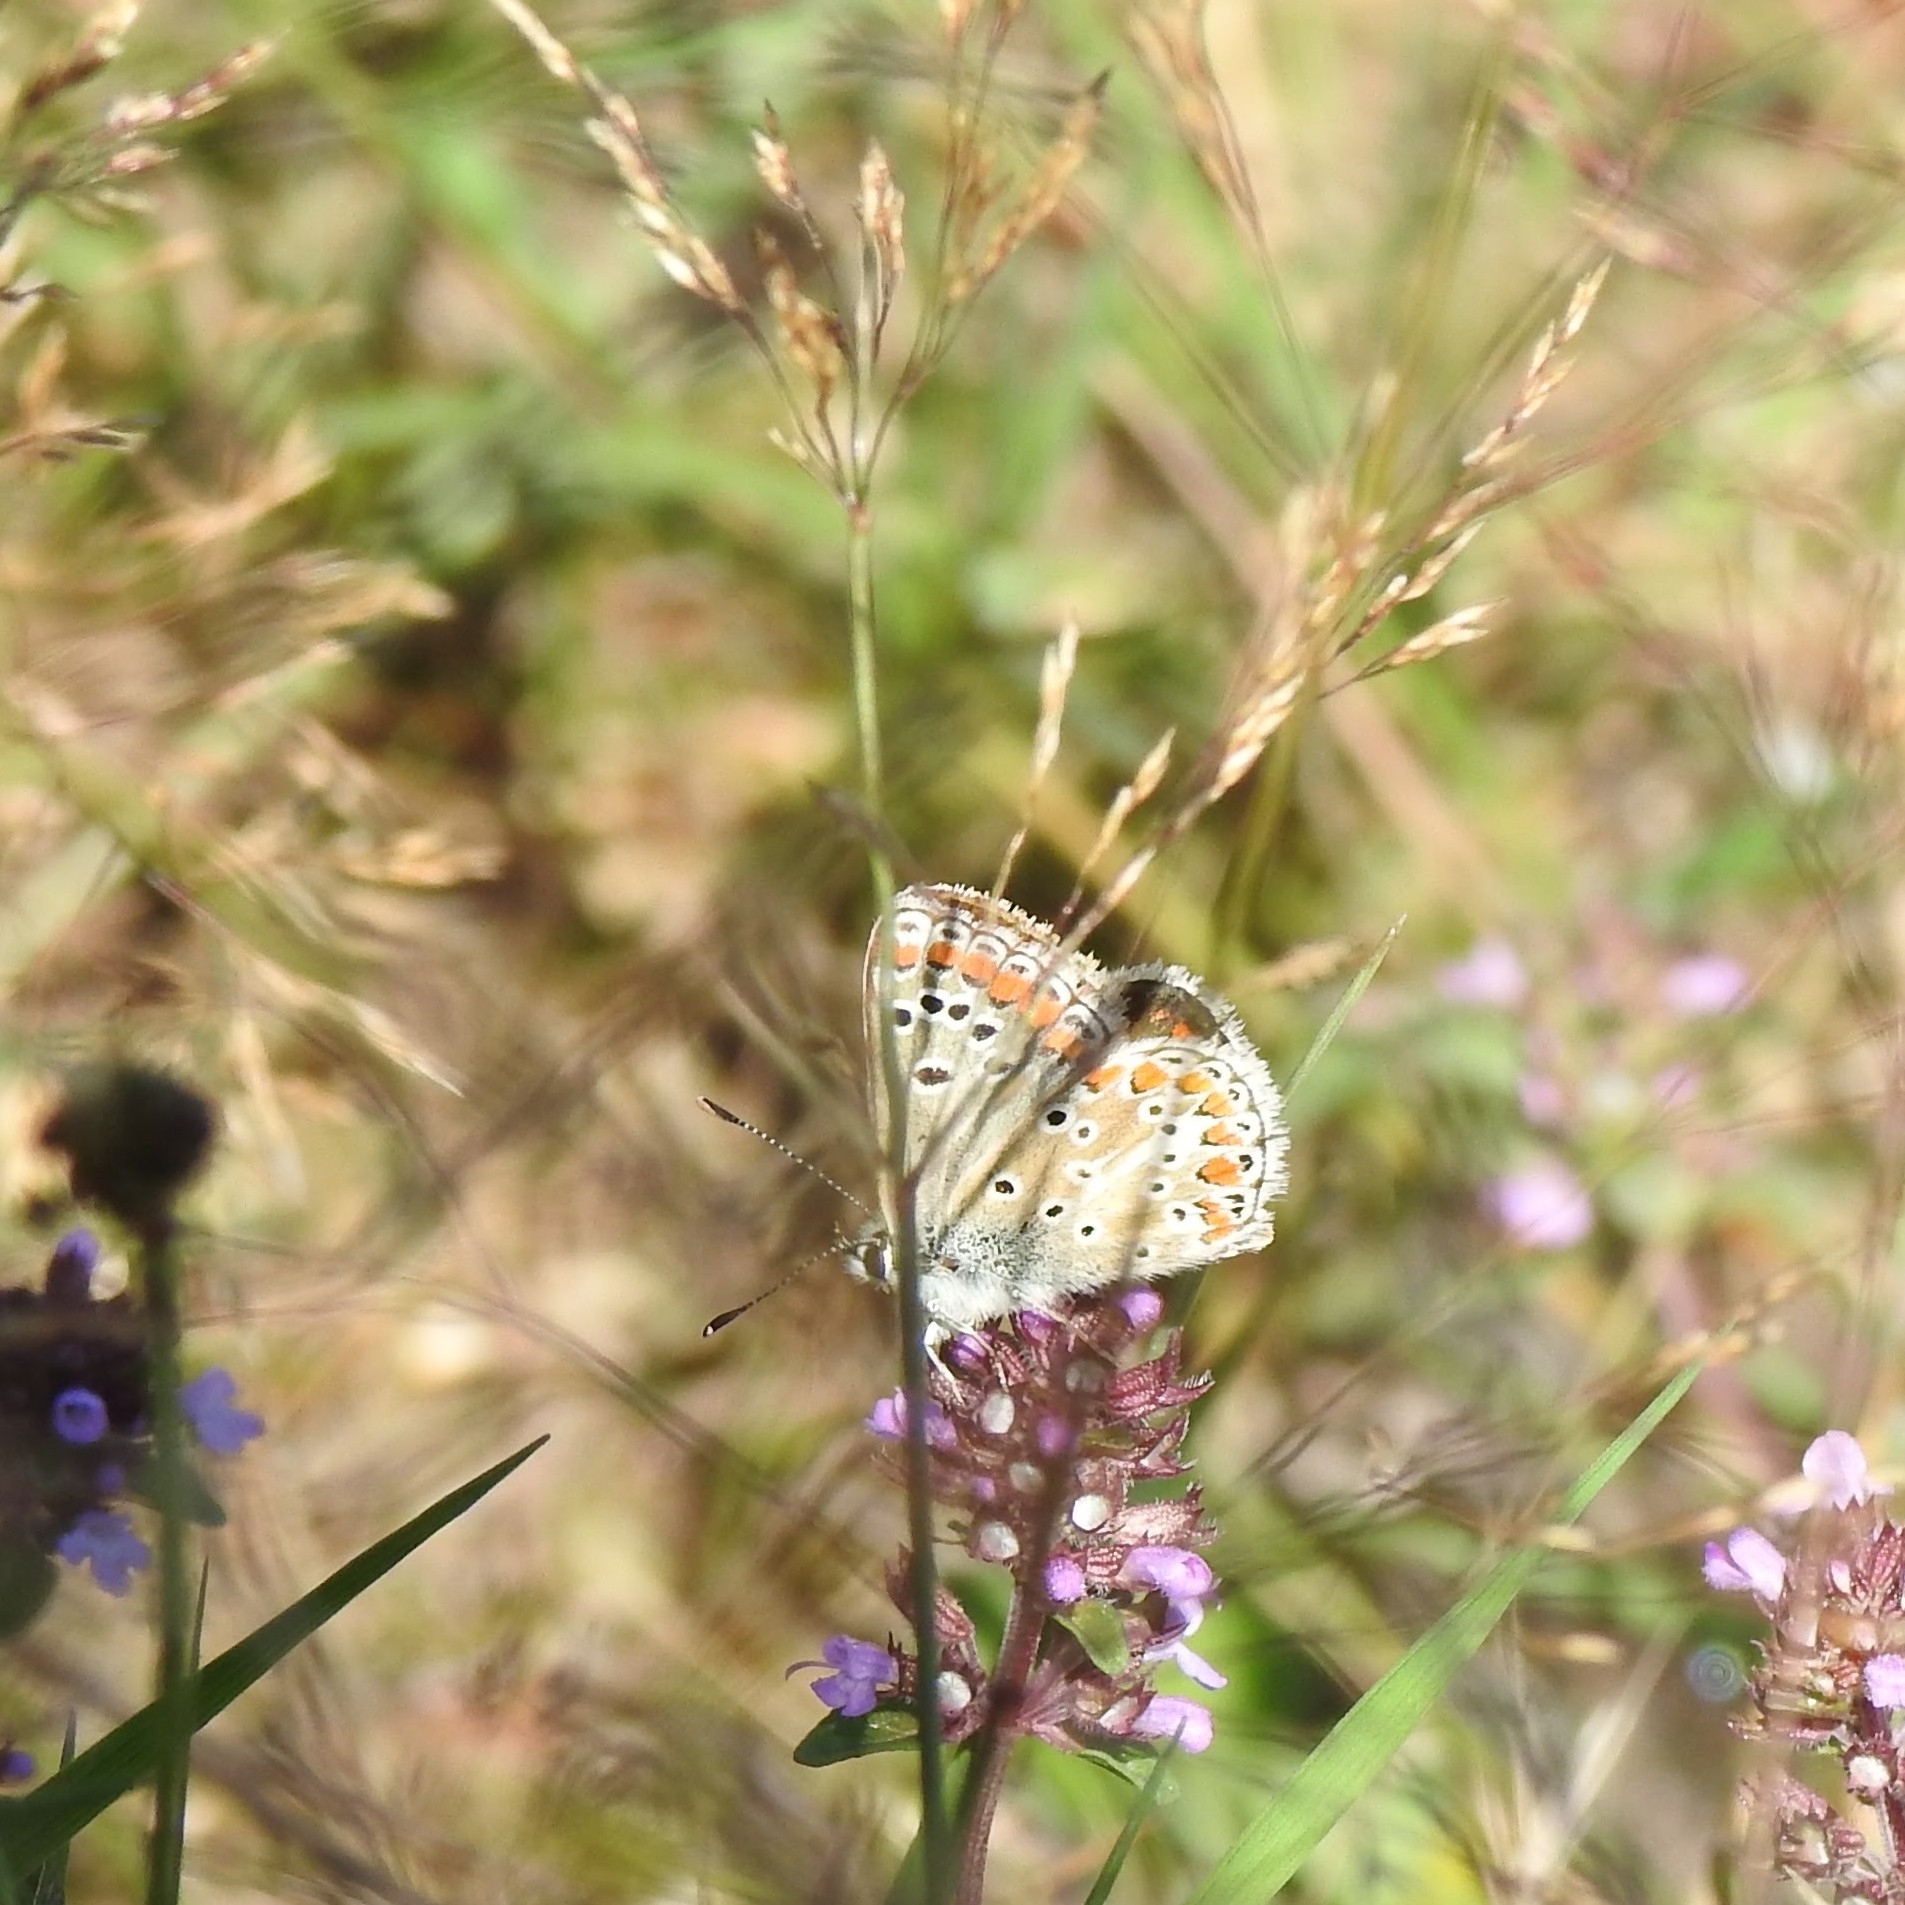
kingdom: Animalia
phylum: Arthropoda
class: Insecta
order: Lepidoptera
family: Lycaenidae
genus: Aricia
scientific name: Aricia agestis
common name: Brown argus
